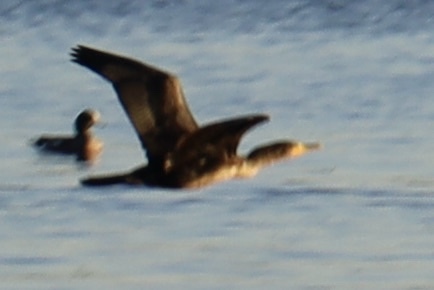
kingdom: Animalia
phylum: Chordata
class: Aves
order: Suliformes
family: Phalacrocoracidae
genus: Phalacrocorax
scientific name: Phalacrocorax auritus
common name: Double-crested cormorant
